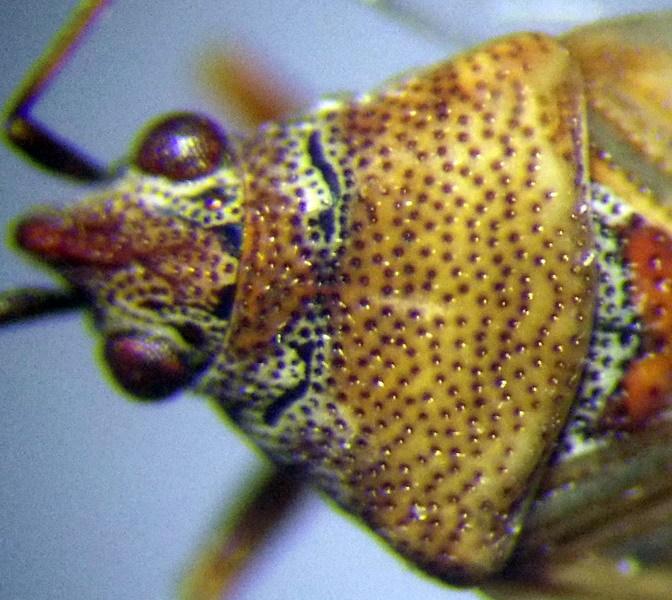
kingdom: Animalia
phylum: Arthropoda
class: Insecta
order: Hemiptera
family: Lygaeidae
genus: Kleidocerys
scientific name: Kleidocerys resedae
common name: Birch catkin bug
